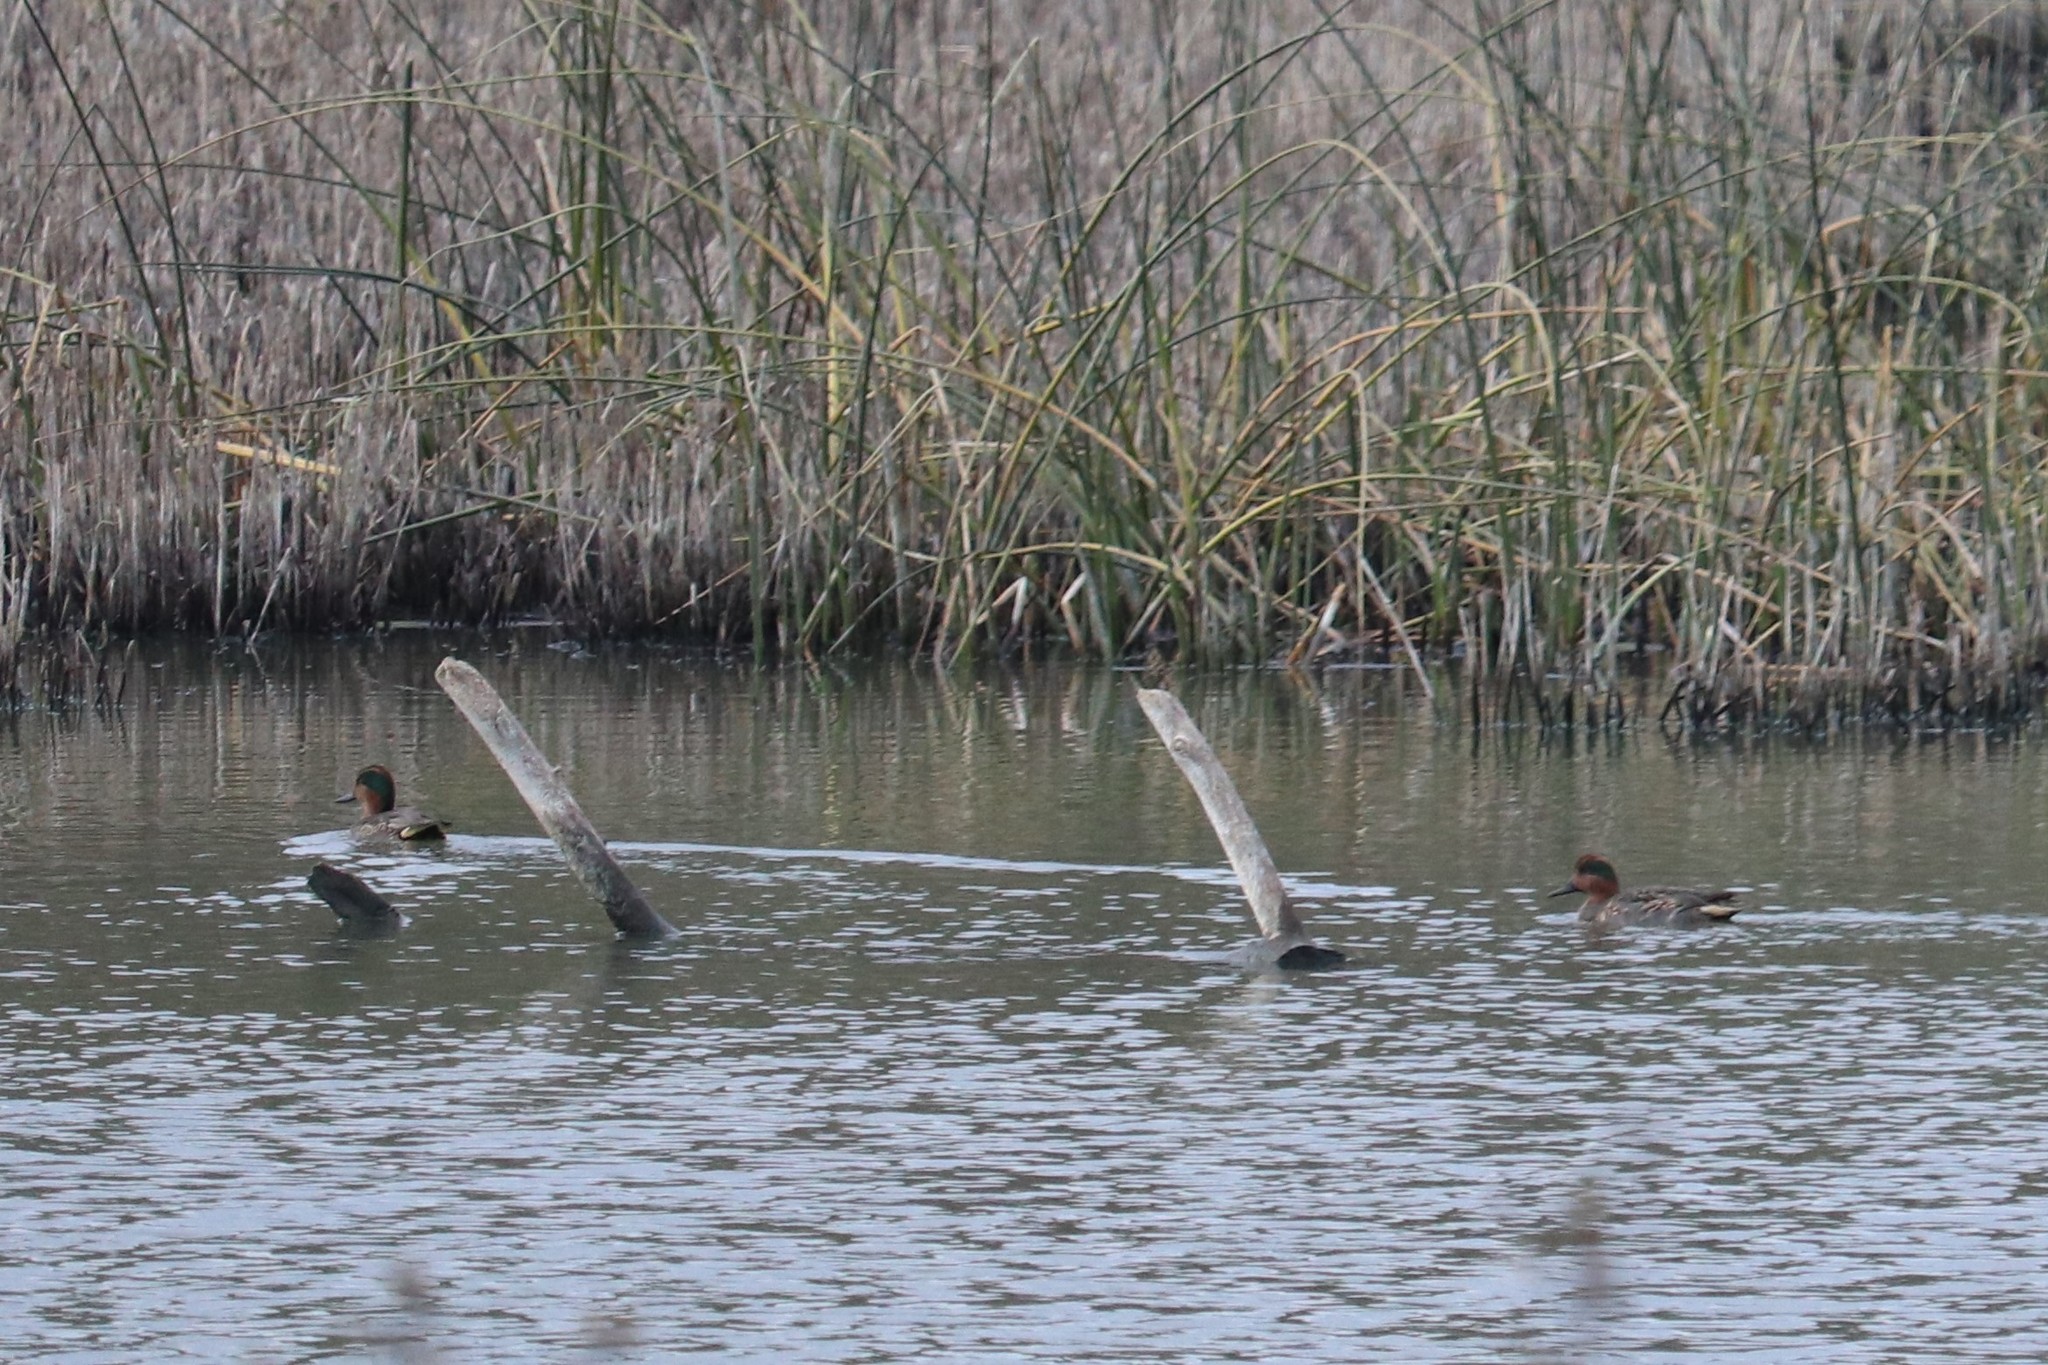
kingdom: Animalia
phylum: Chordata
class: Aves
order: Anseriformes
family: Anatidae
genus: Anas
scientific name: Anas crecca
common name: Eurasian teal
